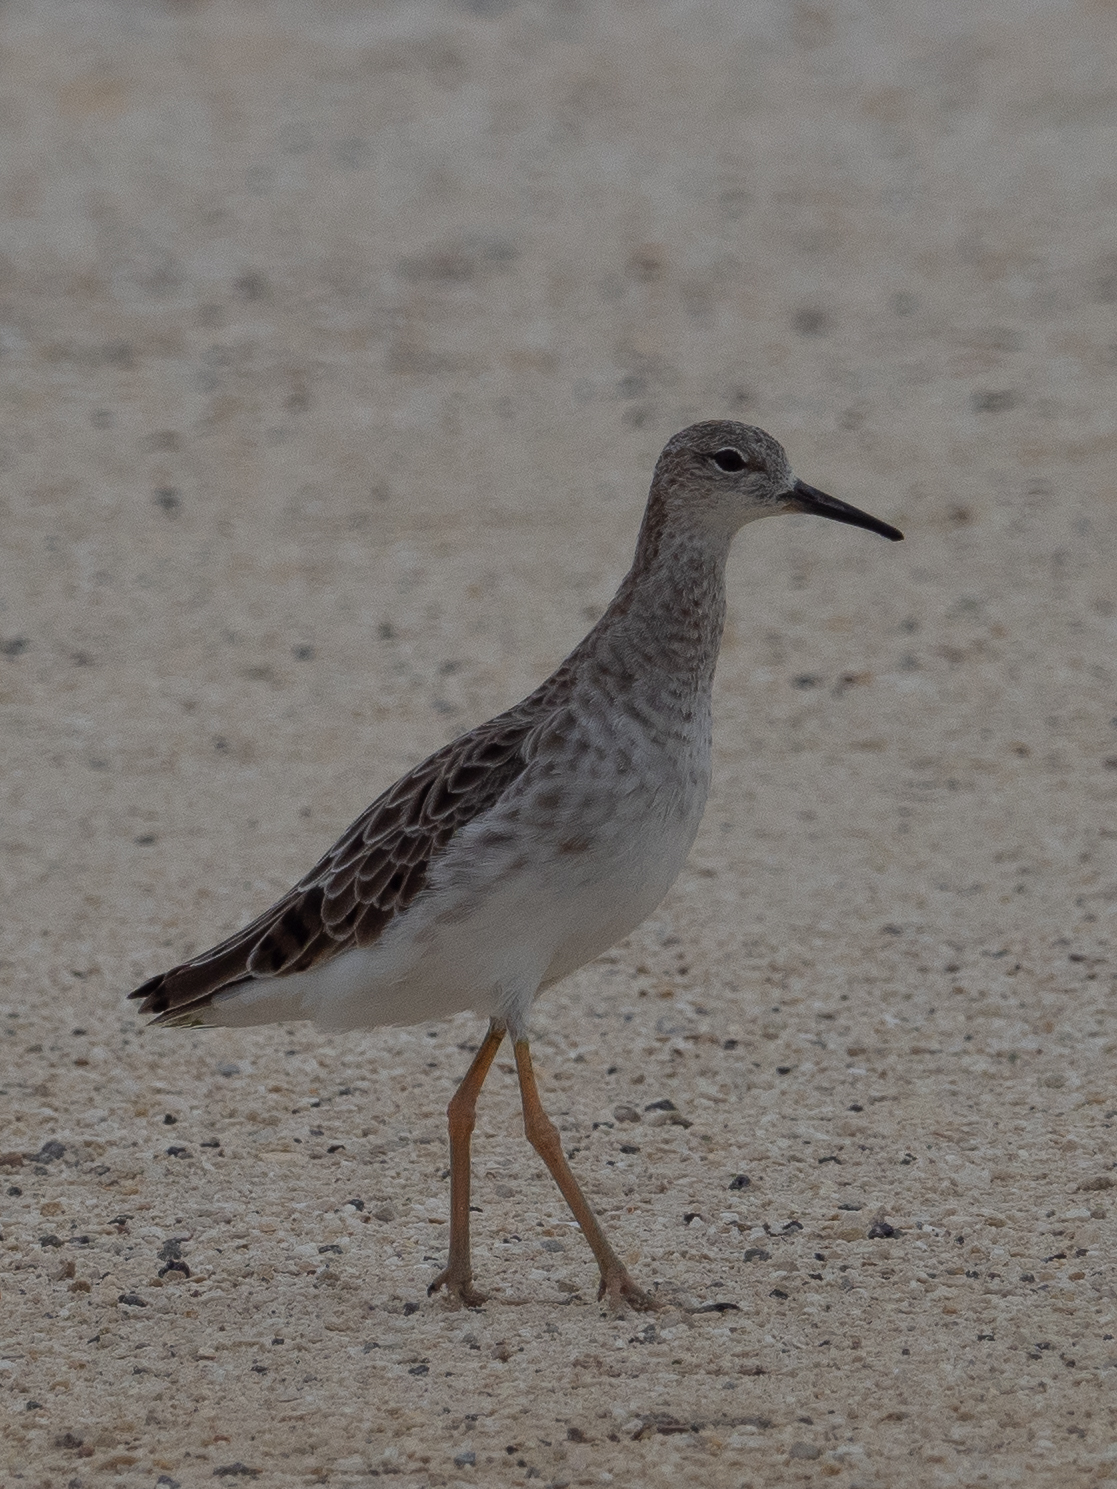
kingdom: Animalia
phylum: Chordata
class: Aves
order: Charadriiformes
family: Scolopacidae
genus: Calidris
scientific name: Calidris pugnax
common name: Ruff
